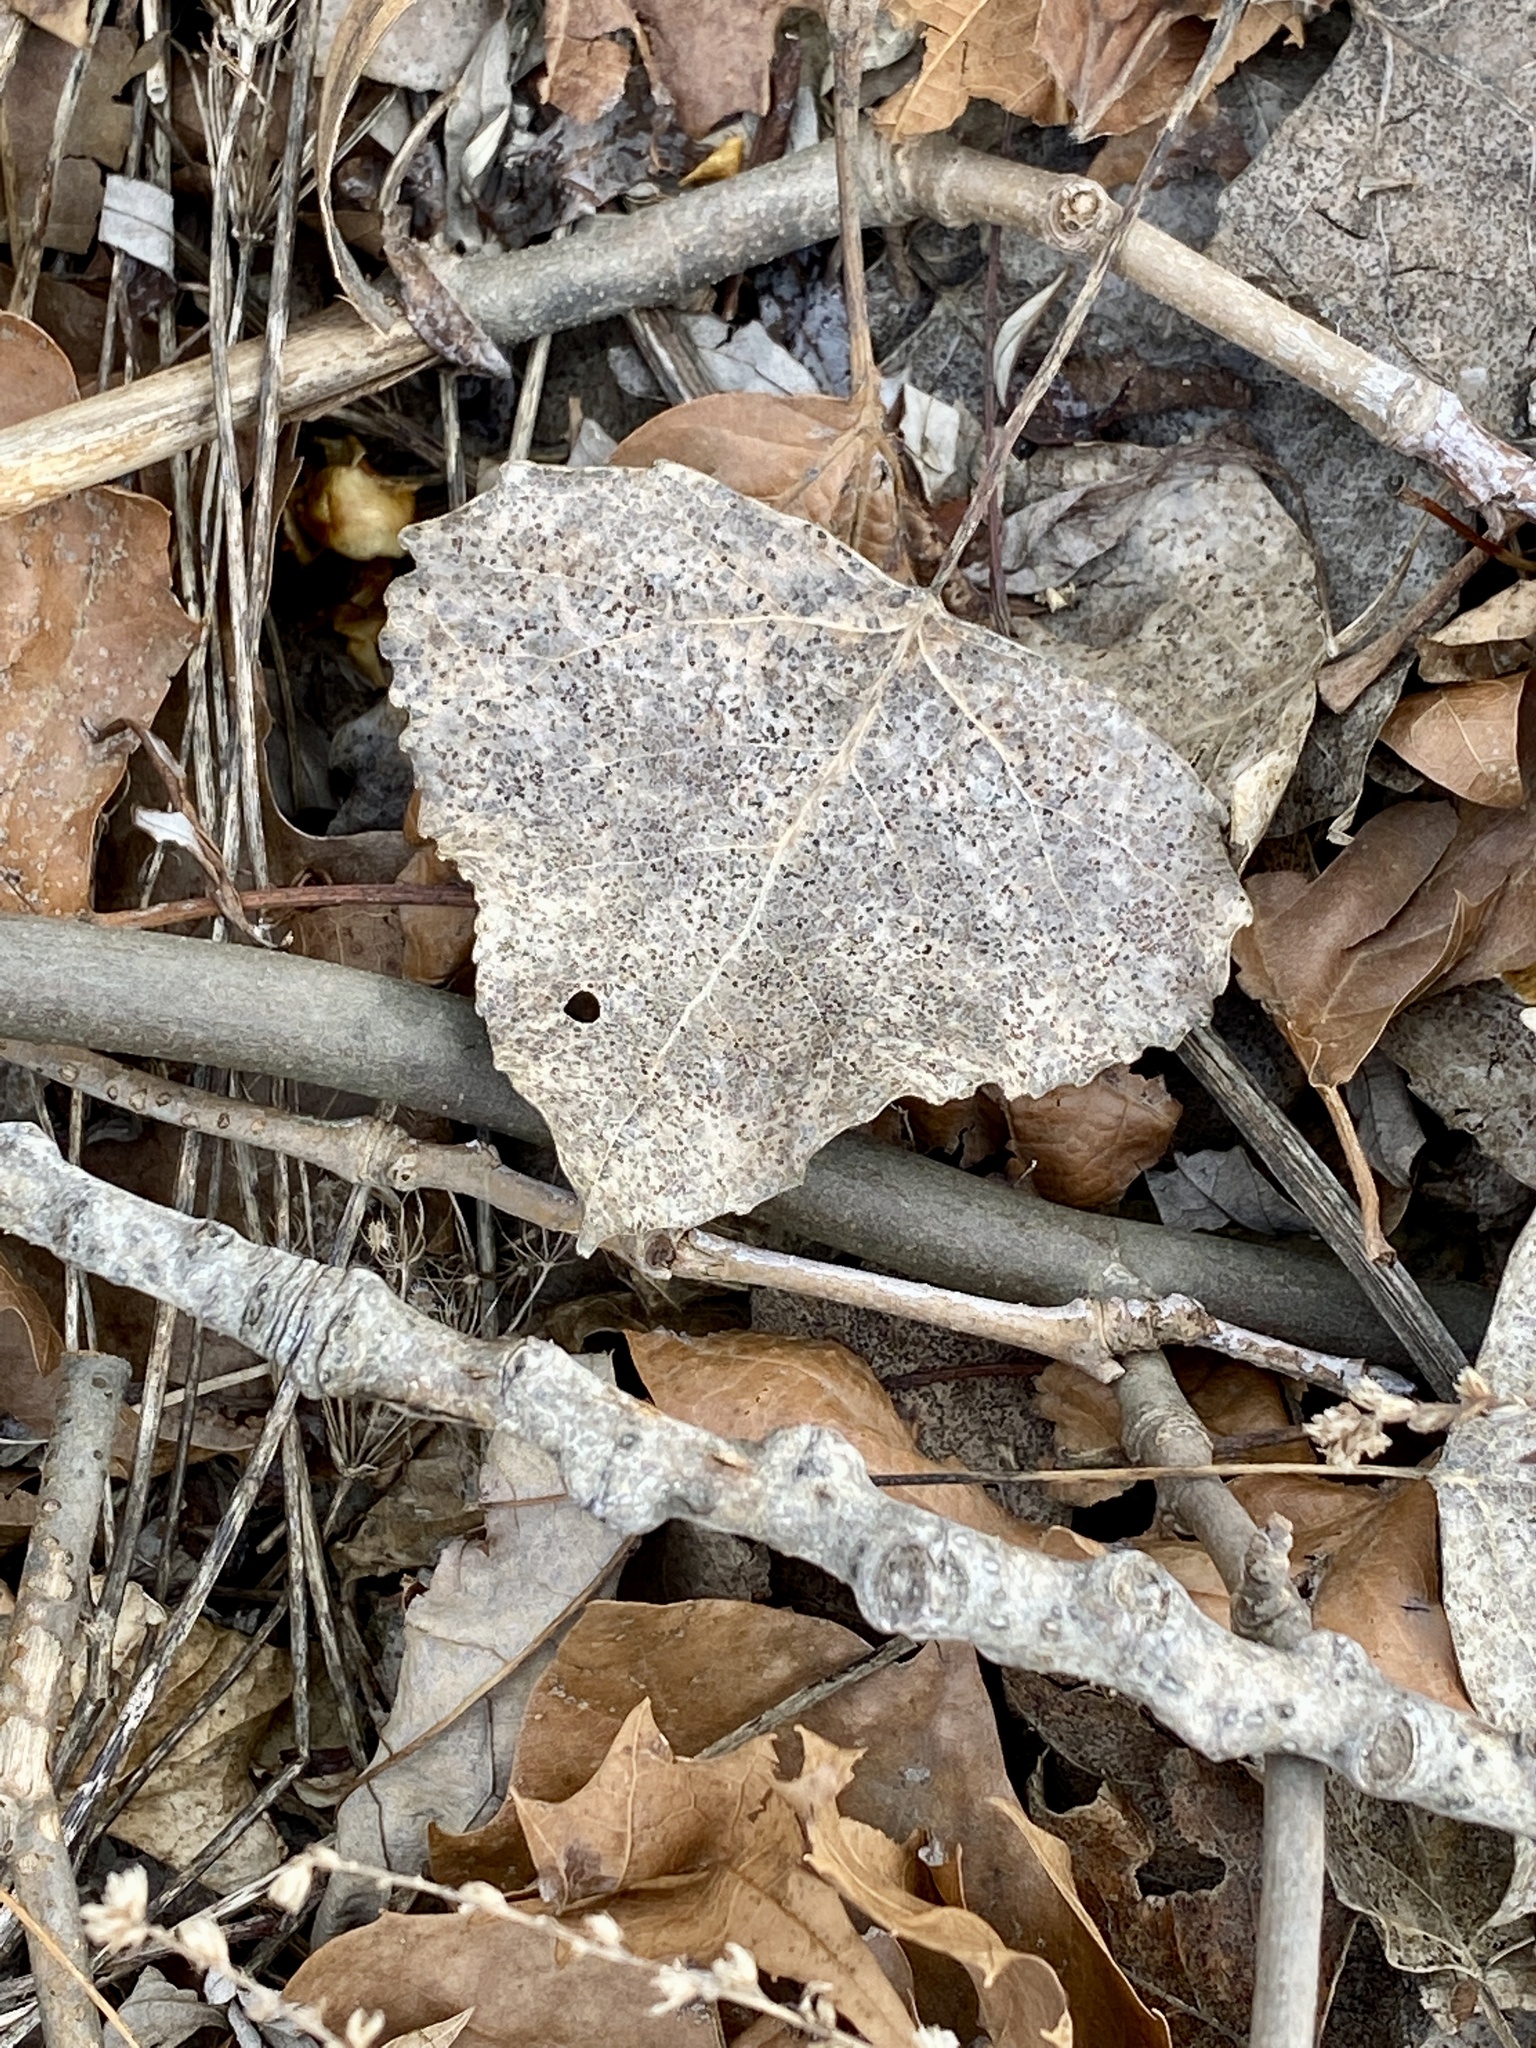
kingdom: Plantae
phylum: Tracheophyta
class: Magnoliopsida
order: Malpighiales
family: Salicaceae
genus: Populus
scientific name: Populus deltoides
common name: Eastern cottonwood
